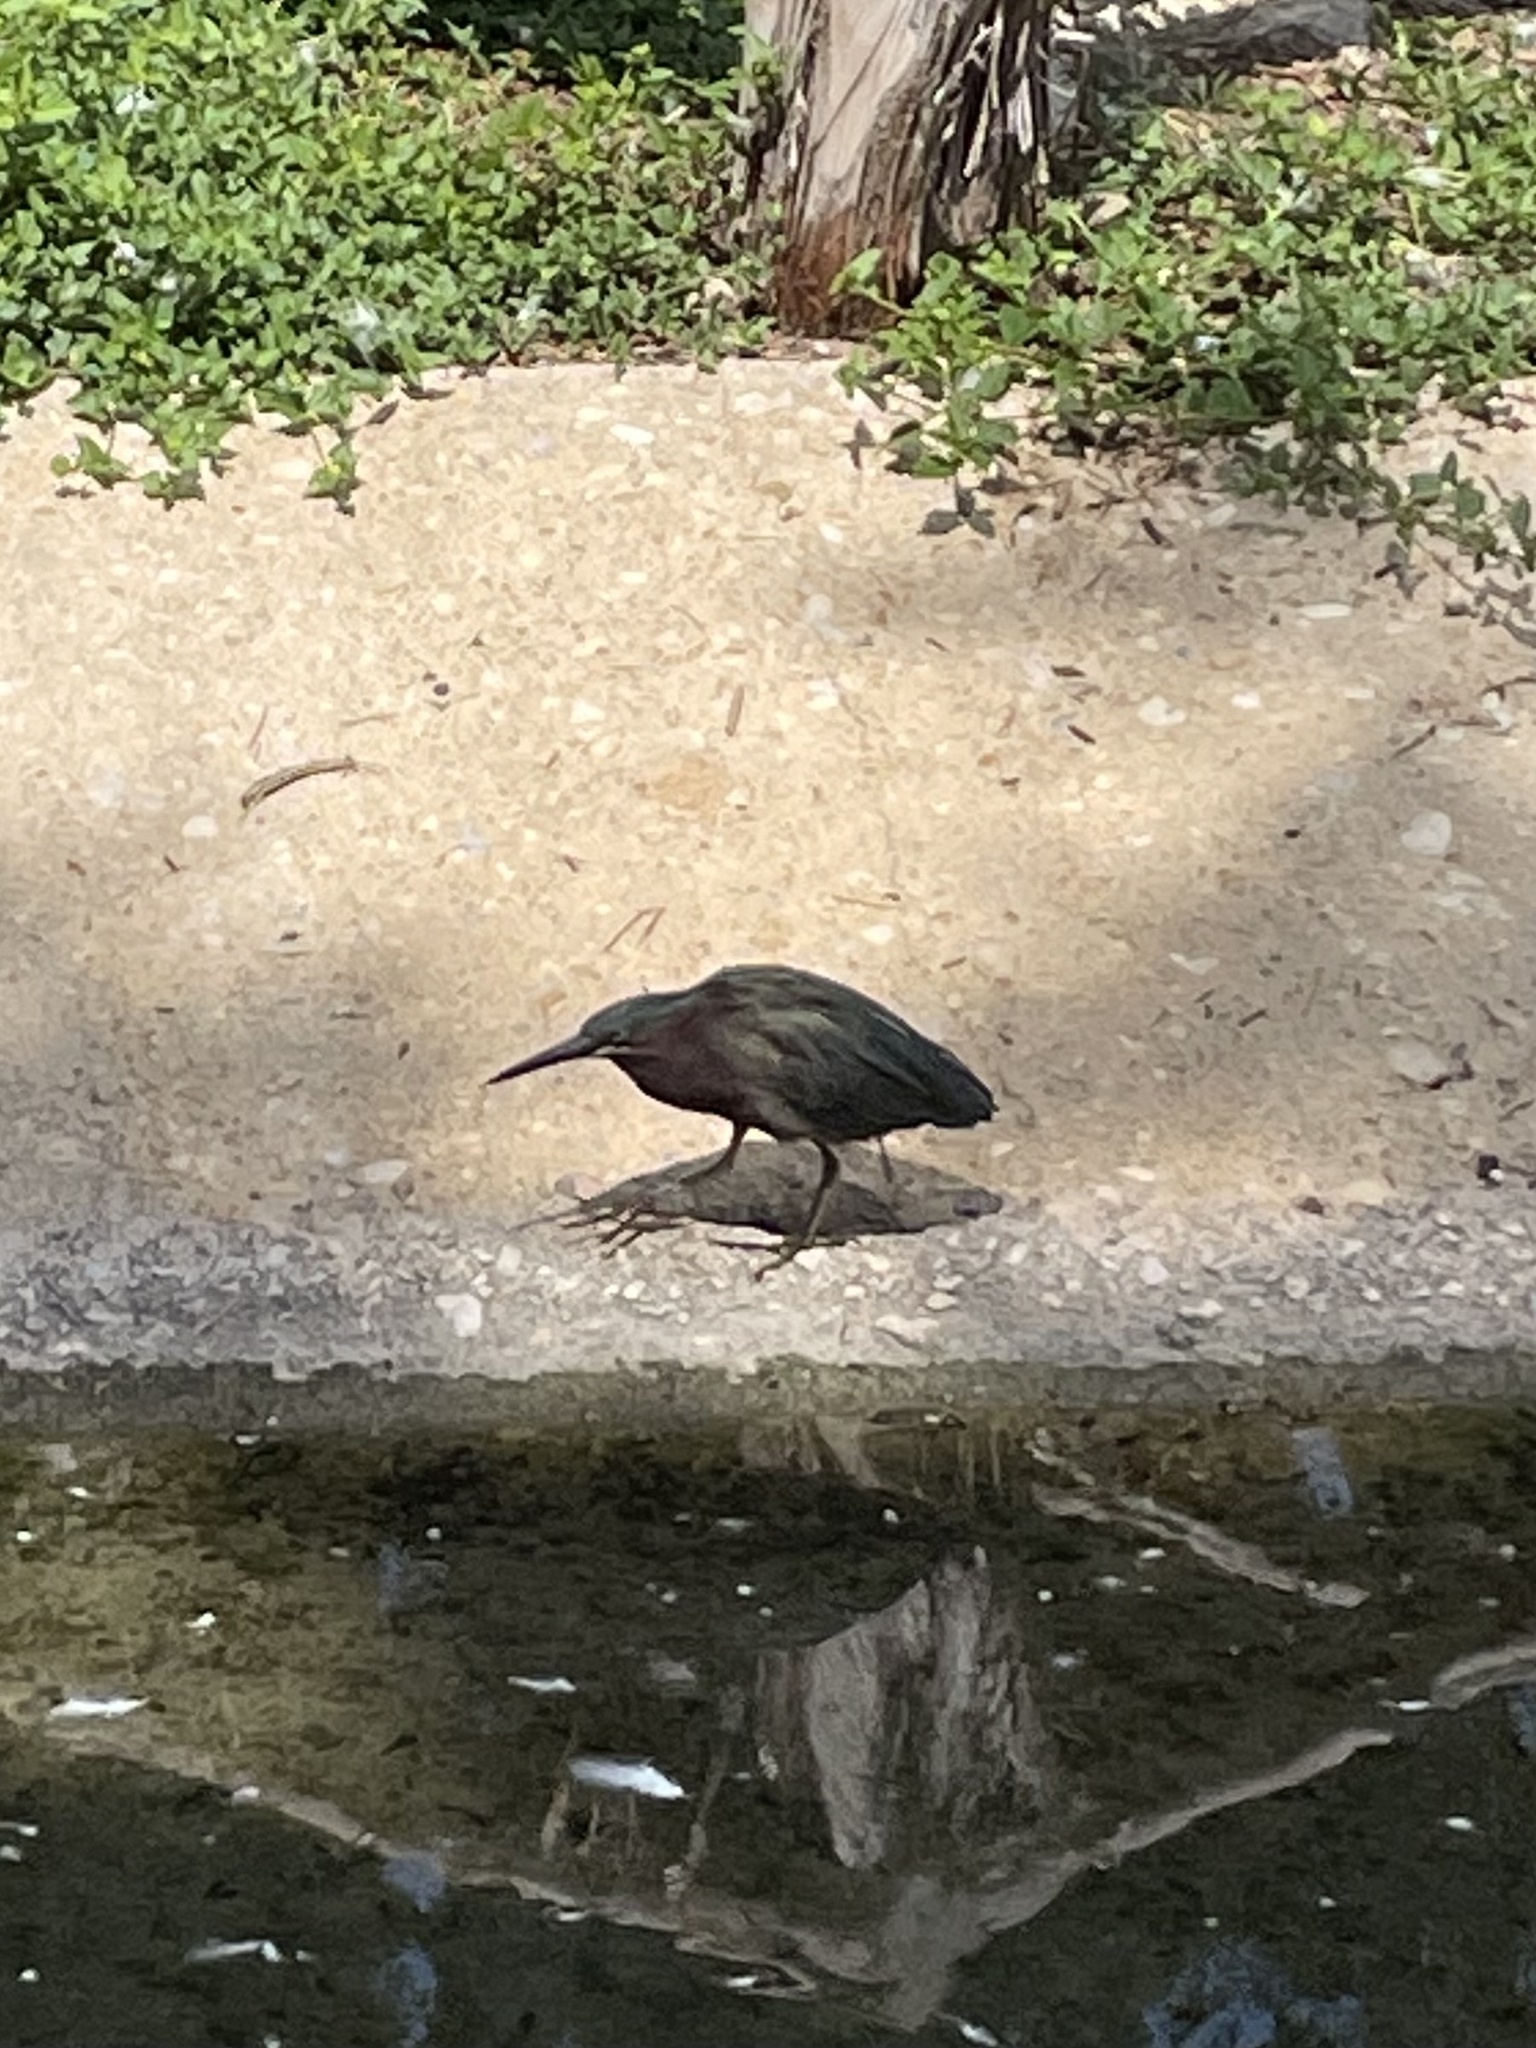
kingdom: Animalia
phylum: Chordata
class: Aves
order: Pelecaniformes
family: Ardeidae
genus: Butorides
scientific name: Butorides virescens
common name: Green heron
